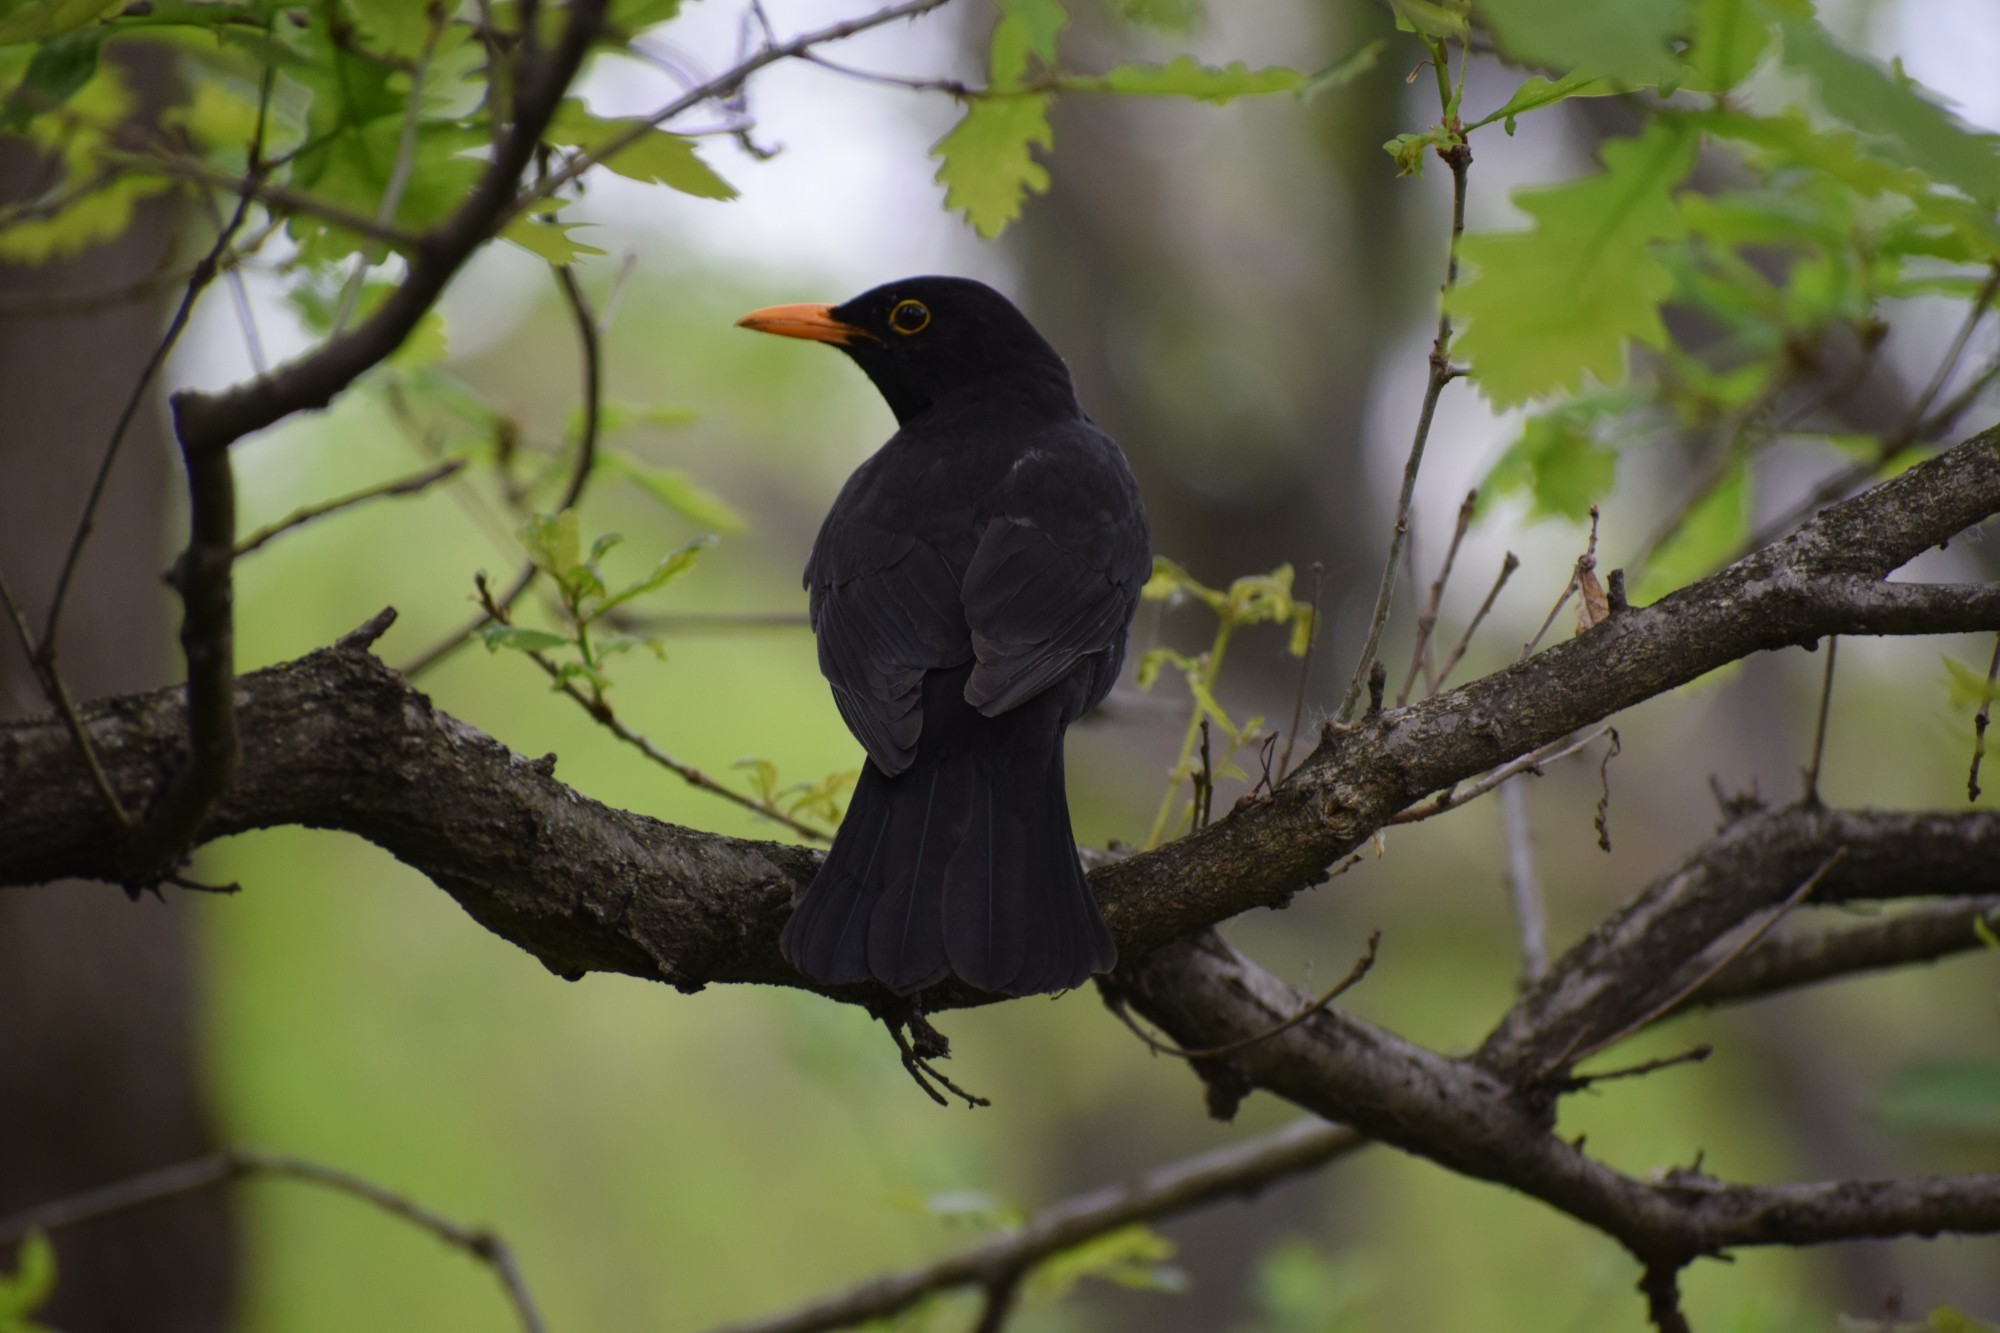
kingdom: Animalia
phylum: Chordata
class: Aves
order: Passeriformes
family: Turdidae
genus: Turdus
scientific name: Turdus merula
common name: Common blackbird
